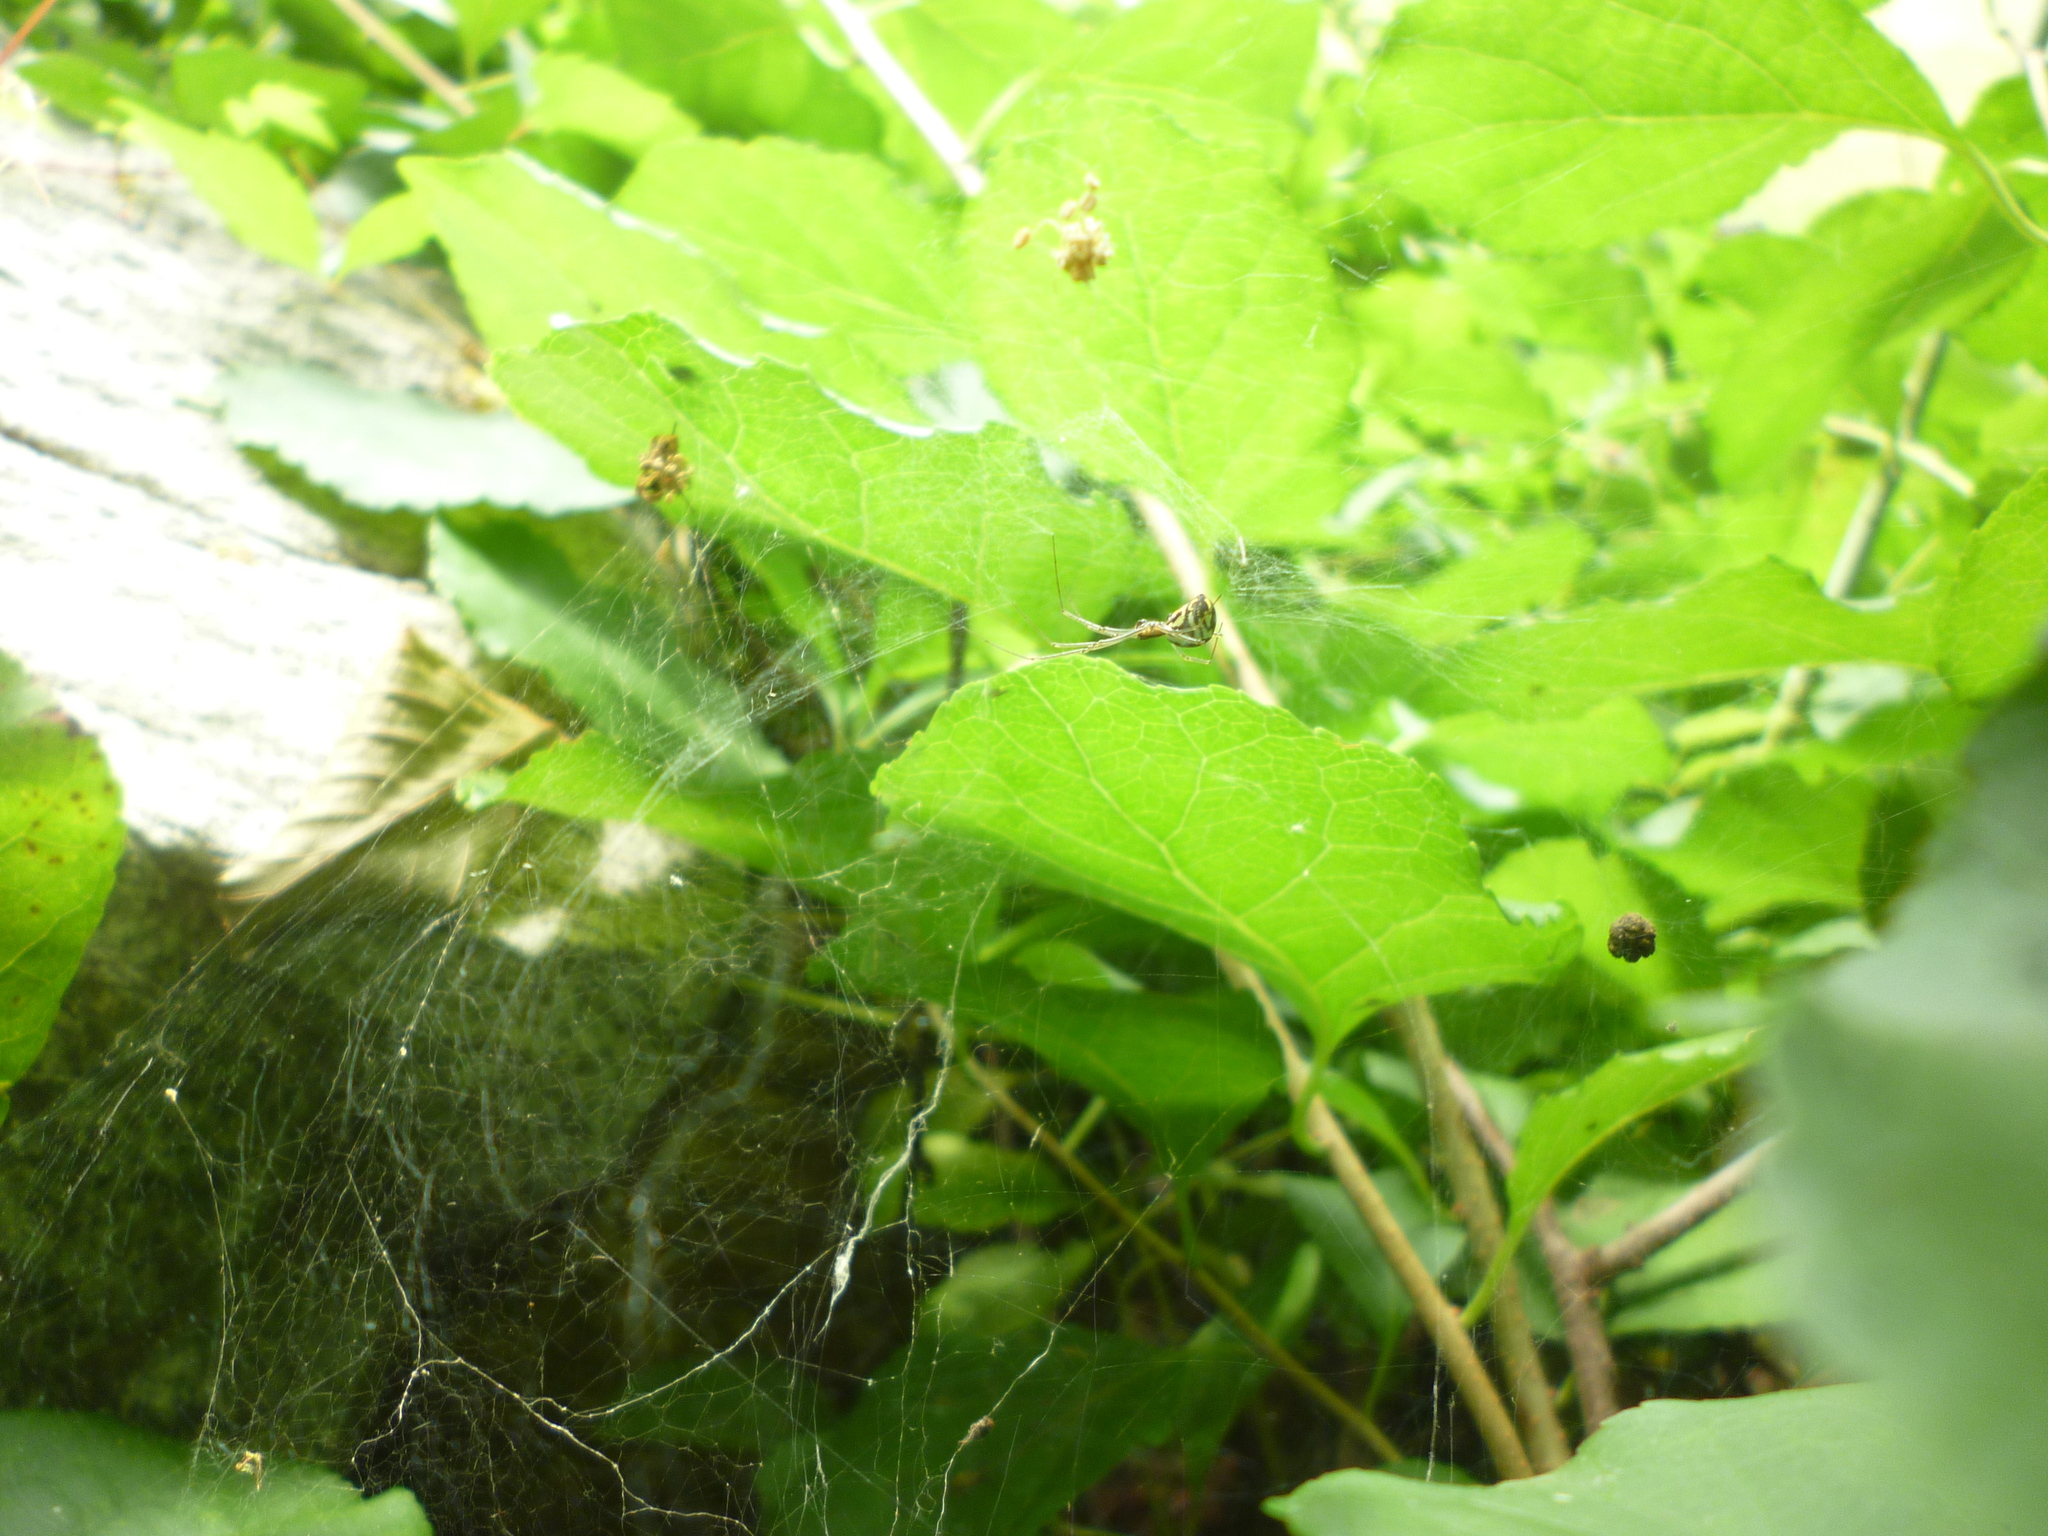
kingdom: Animalia
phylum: Arthropoda
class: Arachnida
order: Araneae
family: Linyphiidae
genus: Neriene
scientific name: Neriene radiata
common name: Filmy dome spider
